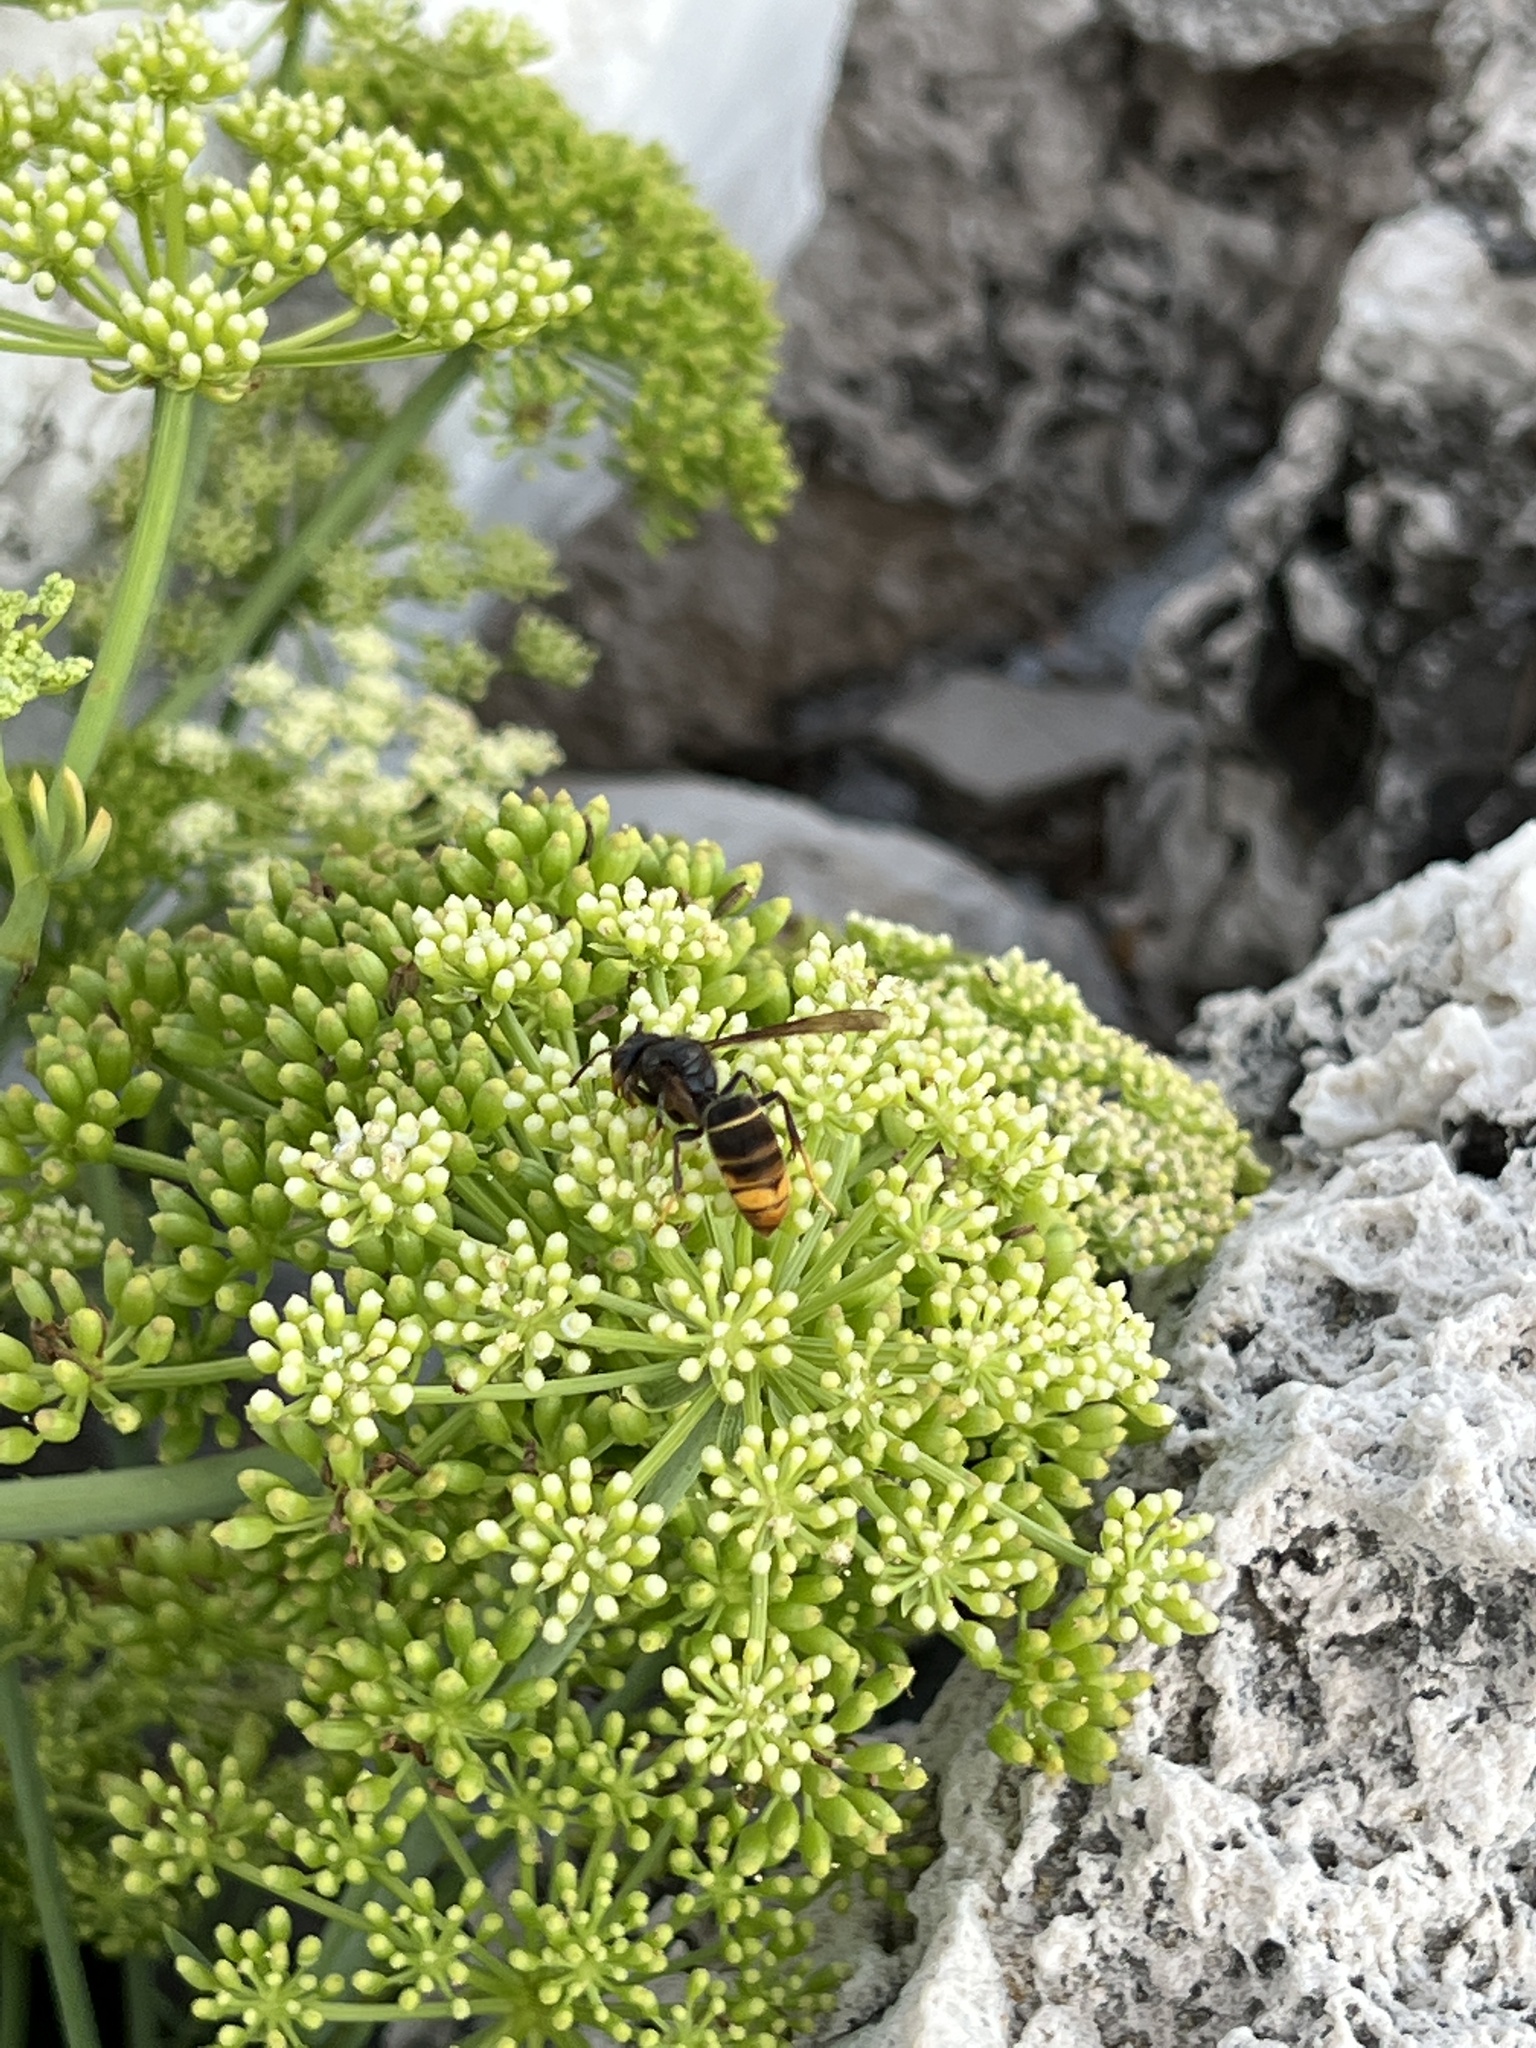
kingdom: Animalia
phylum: Arthropoda
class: Insecta
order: Hymenoptera
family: Vespidae
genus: Vespa
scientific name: Vespa velutina
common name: Asian hornet
